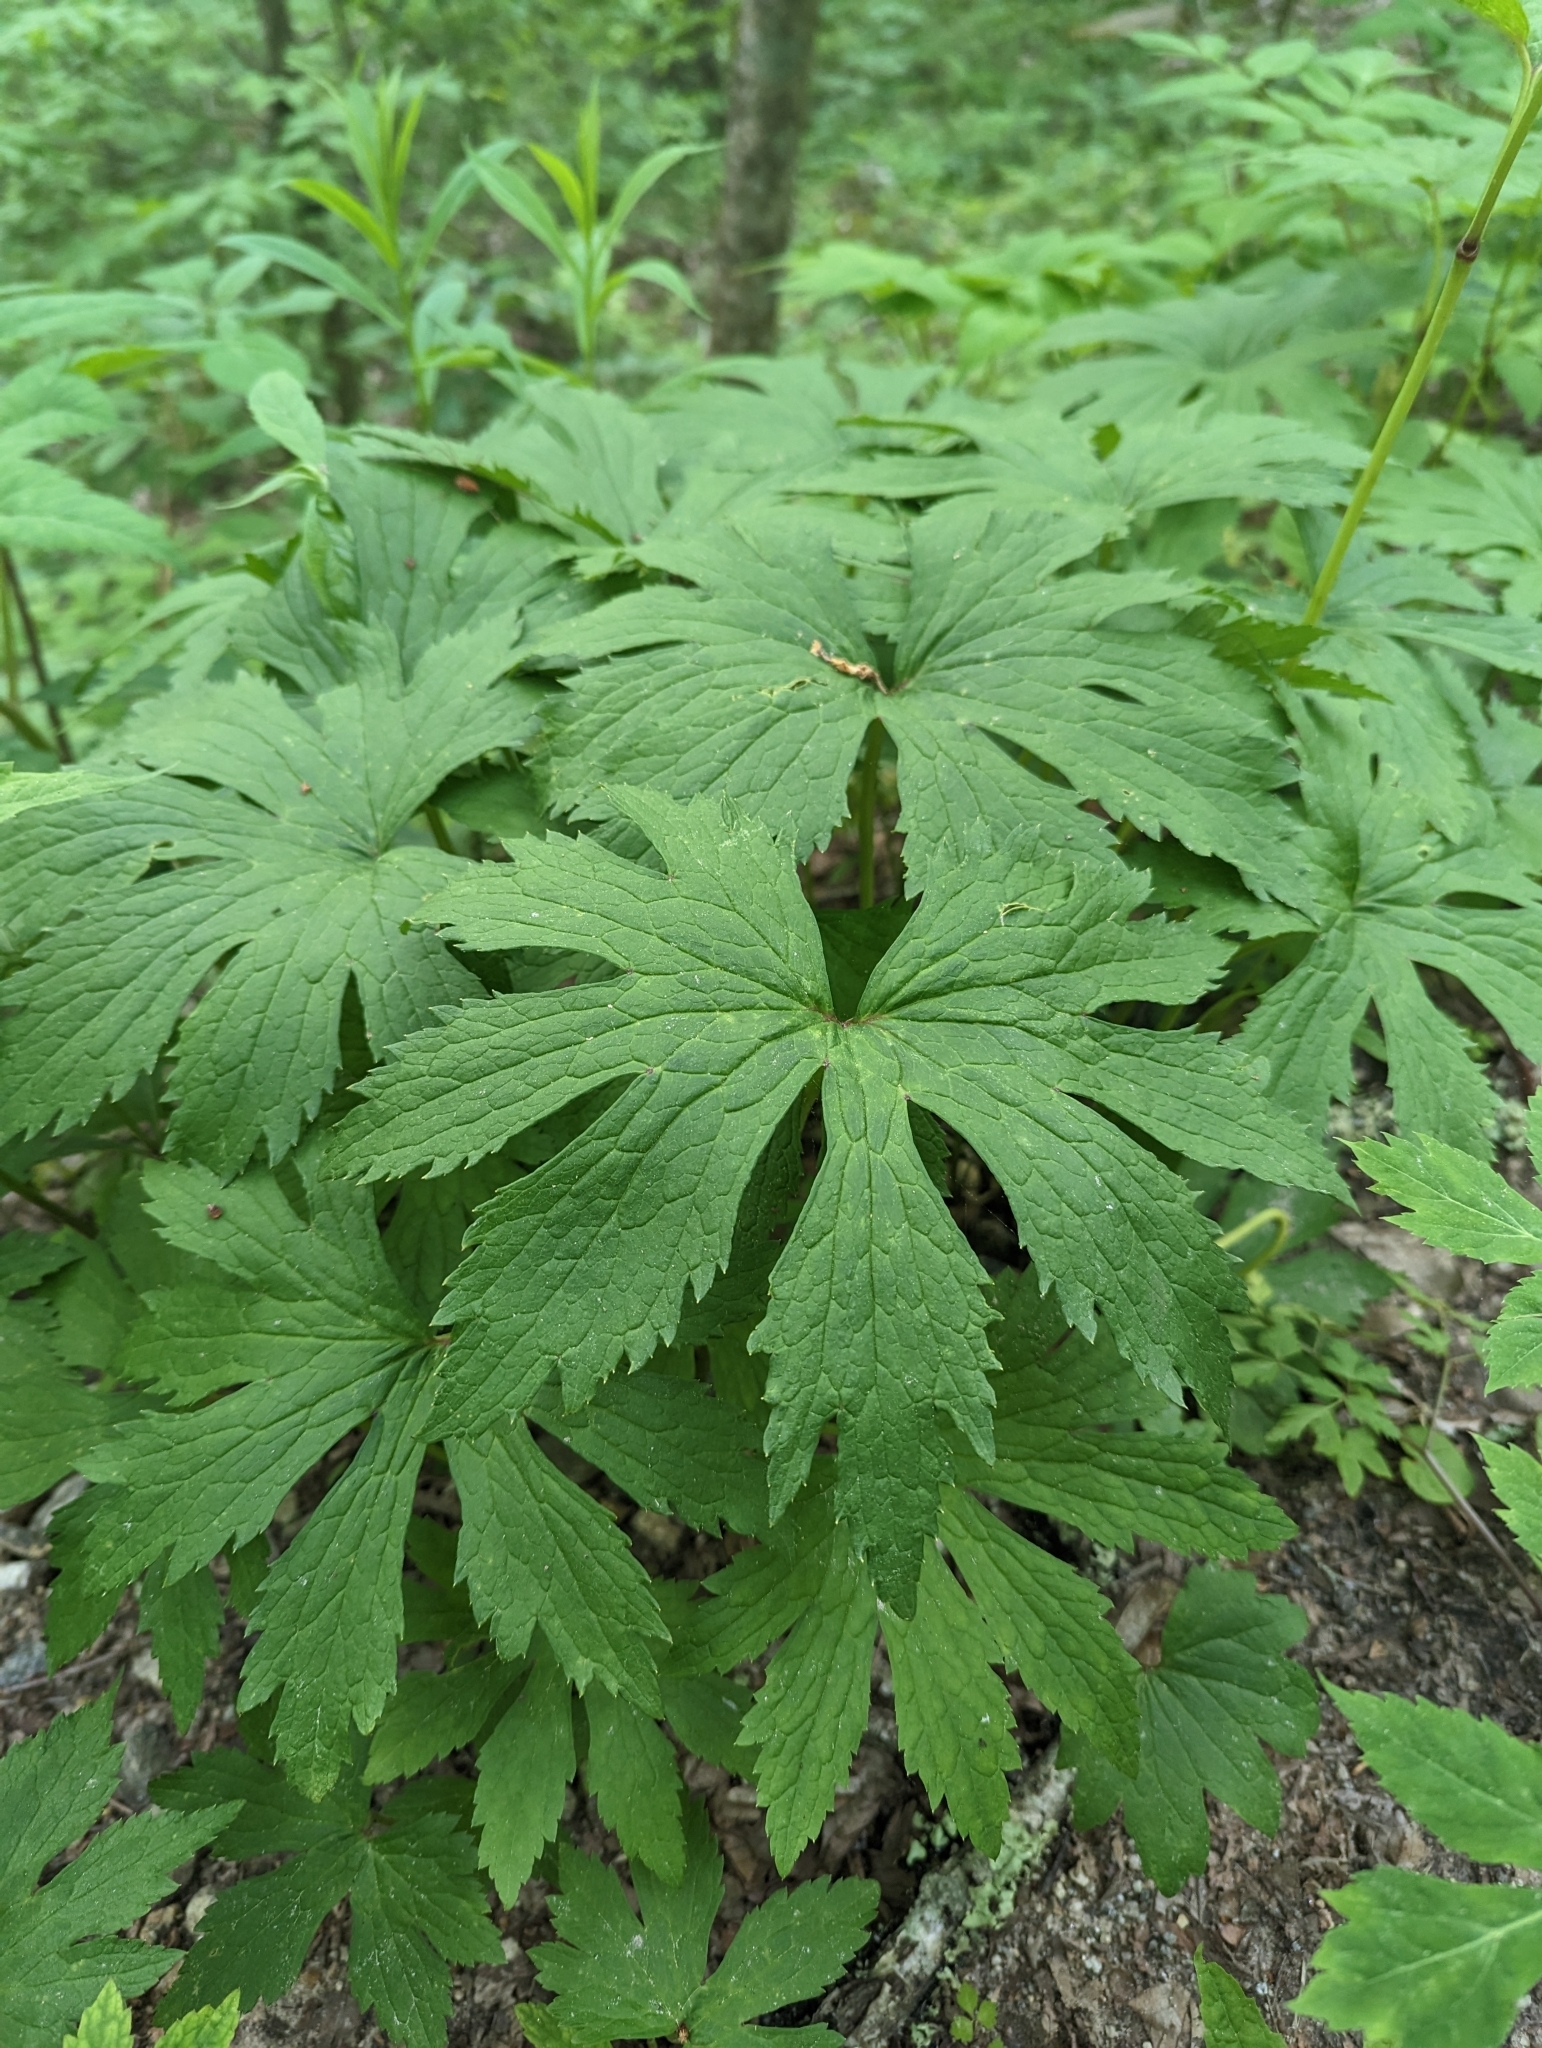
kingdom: Plantae
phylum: Tracheophyta
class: Magnoliopsida
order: Ranunculales
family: Ranunculaceae
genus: Trautvetteria
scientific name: Trautvetteria carolinensis
